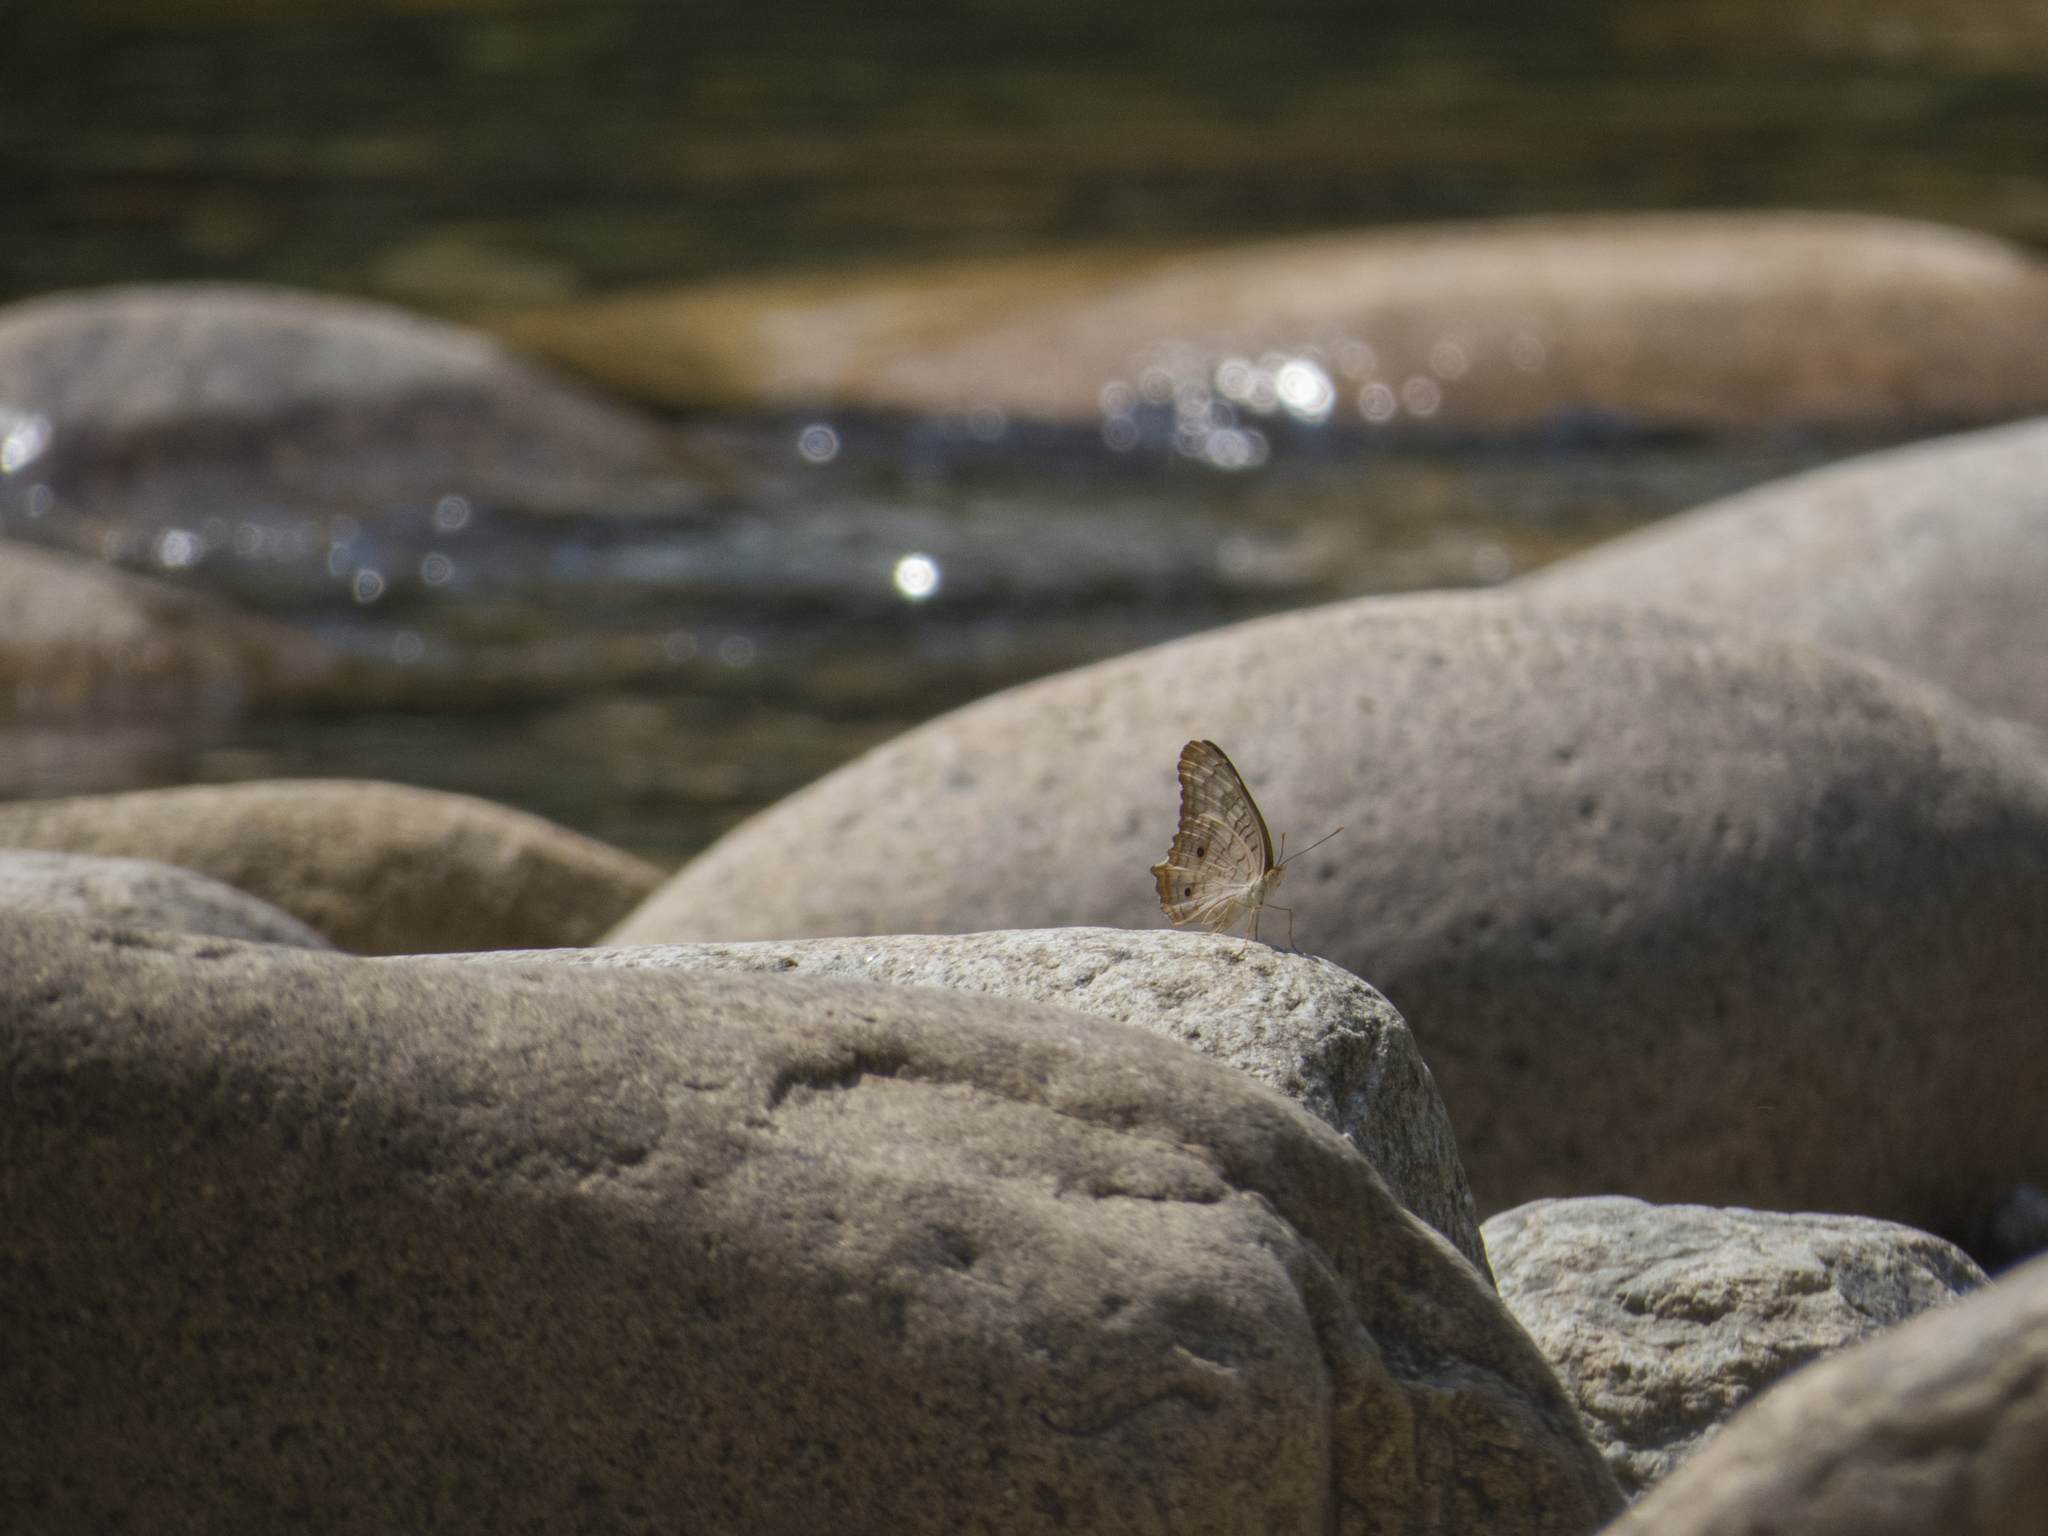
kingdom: Animalia
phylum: Arthropoda
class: Insecta
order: Lepidoptera
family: Nymphalidae
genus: Anartia
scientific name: Anartia jatrophae
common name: White peacock
